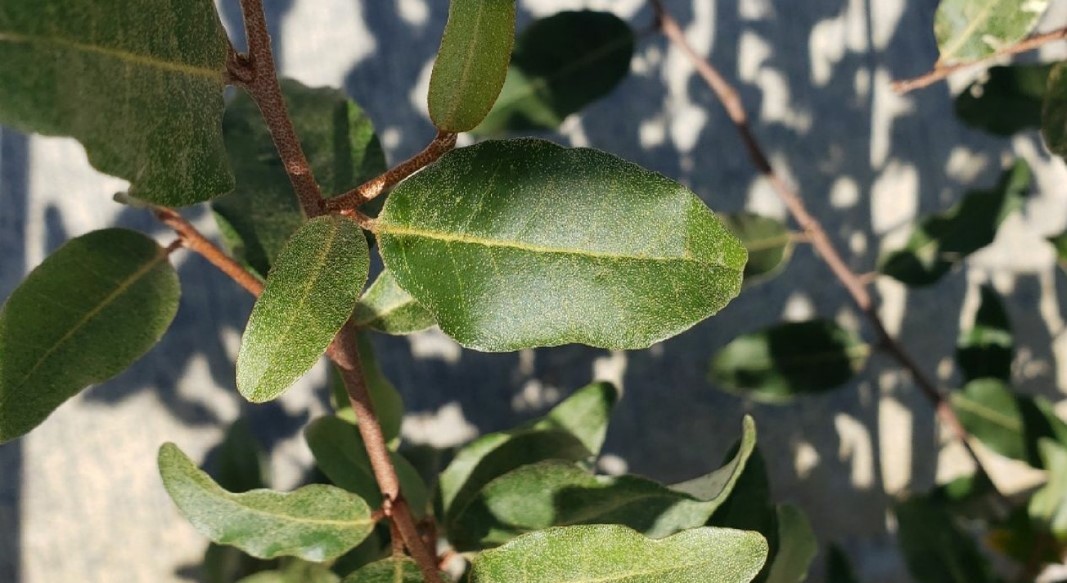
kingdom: Plantae
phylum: Tracheophyta
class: Magnoliopsida
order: Rosales
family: Elaeagnaceae
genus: Elaeagnus
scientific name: Elaeagnus umbellata
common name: Autumn olive
